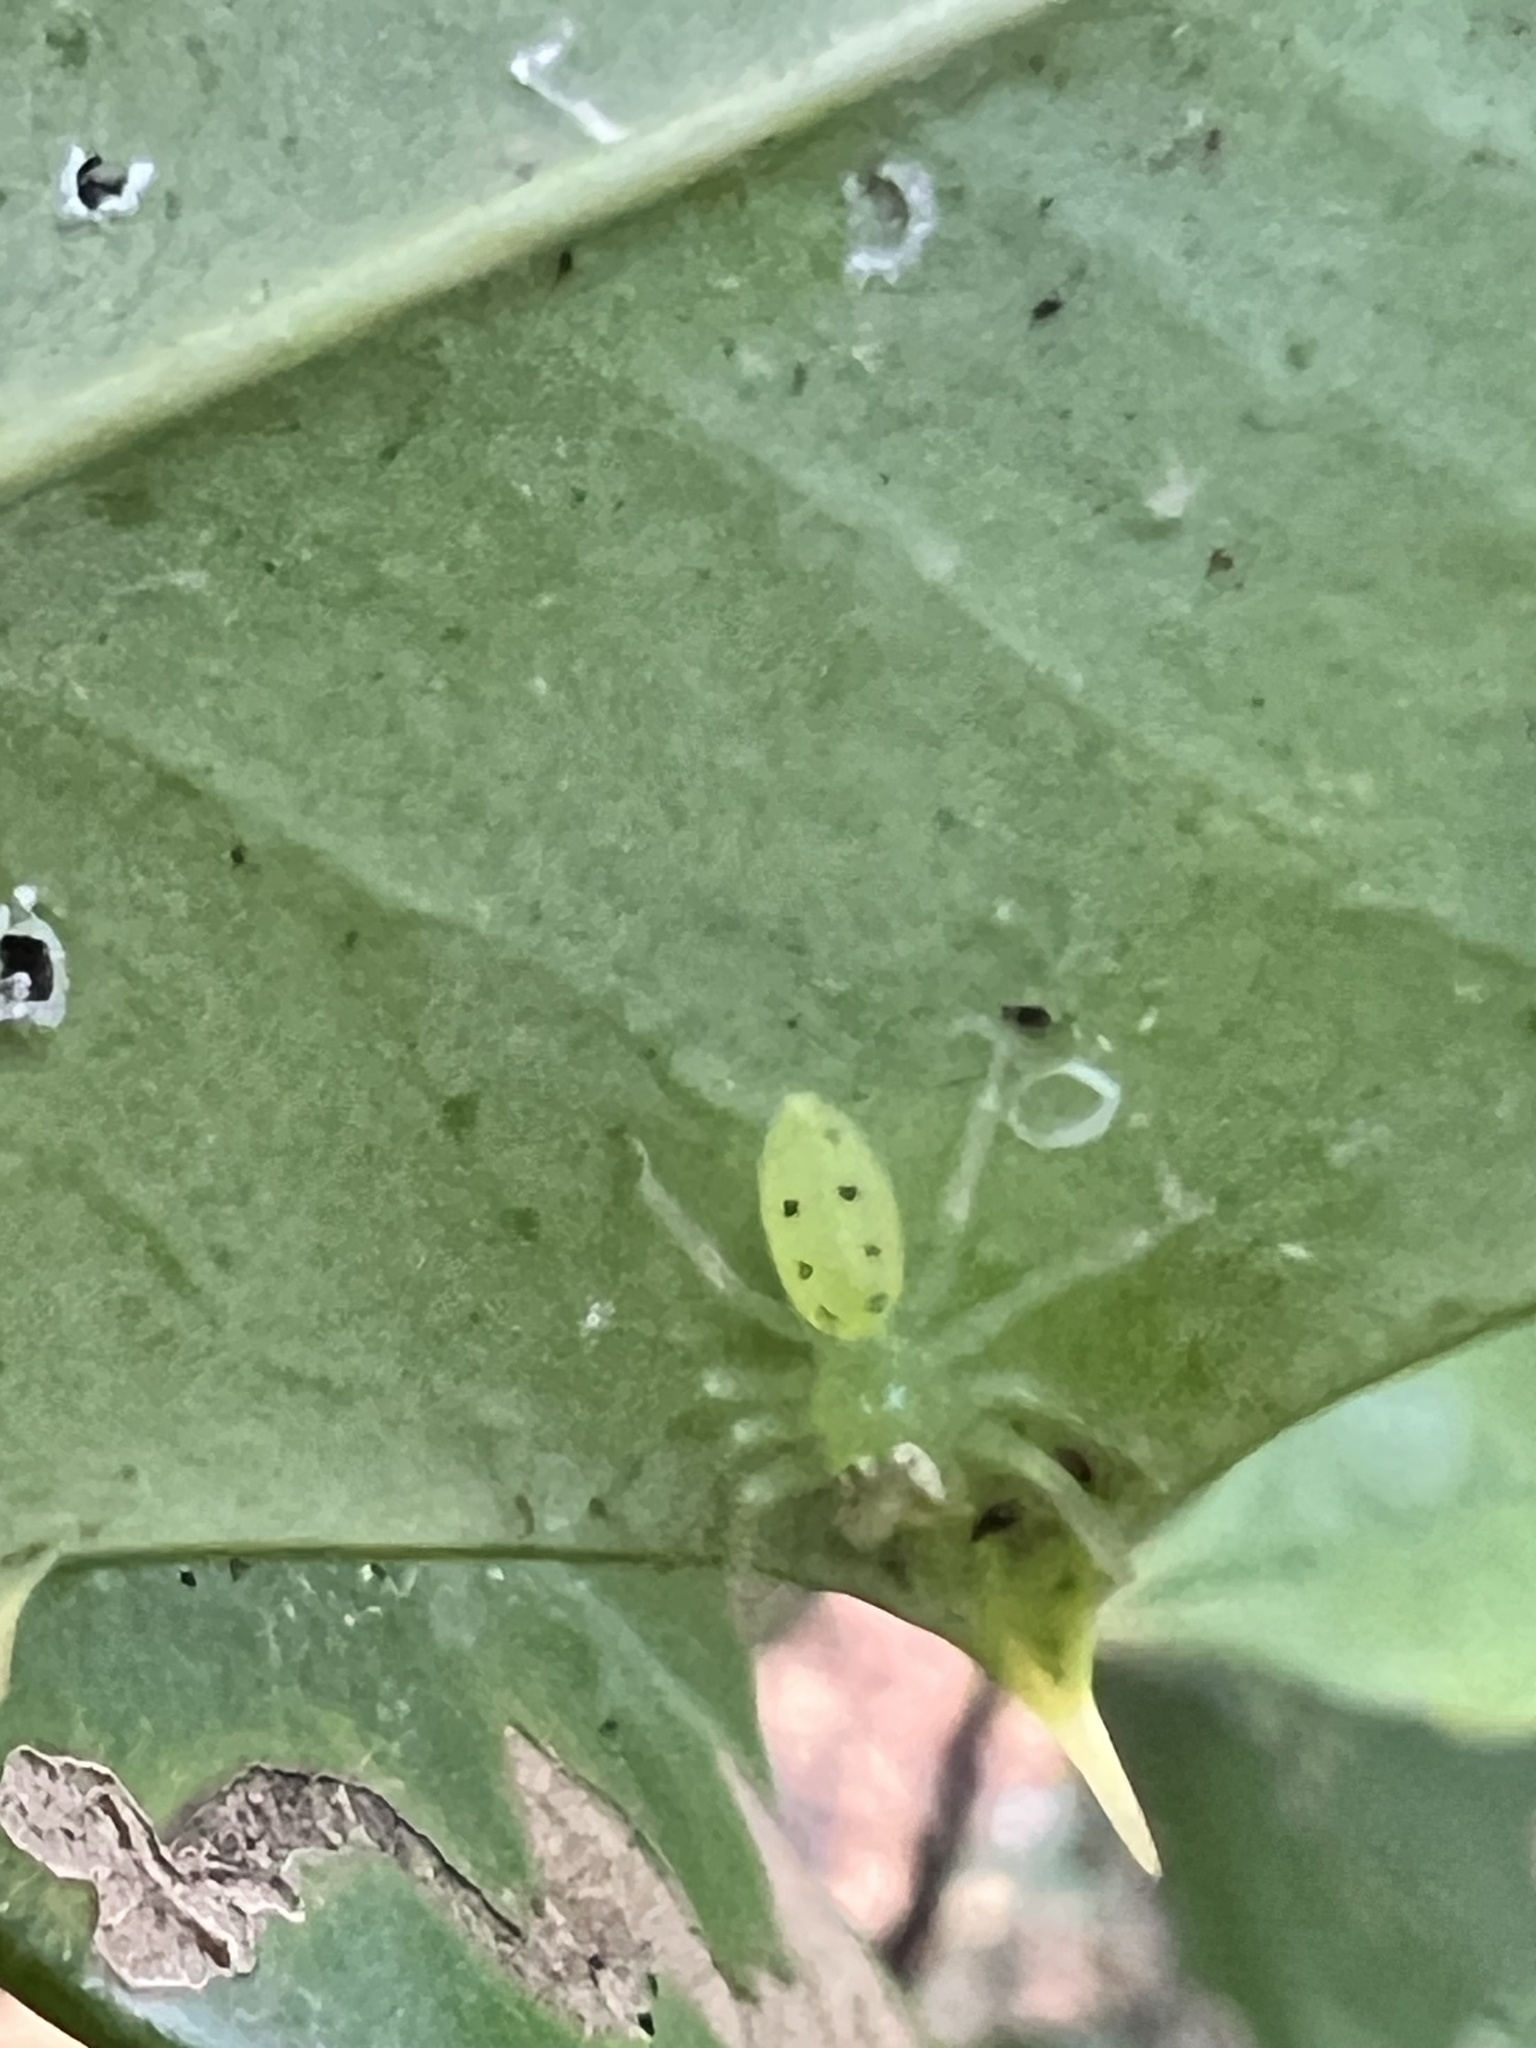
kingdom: Animalia
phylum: Arthropoda
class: Arachnida
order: Araneae
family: Salticidae
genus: Lyssomanes
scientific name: Lyssomanes viridis
